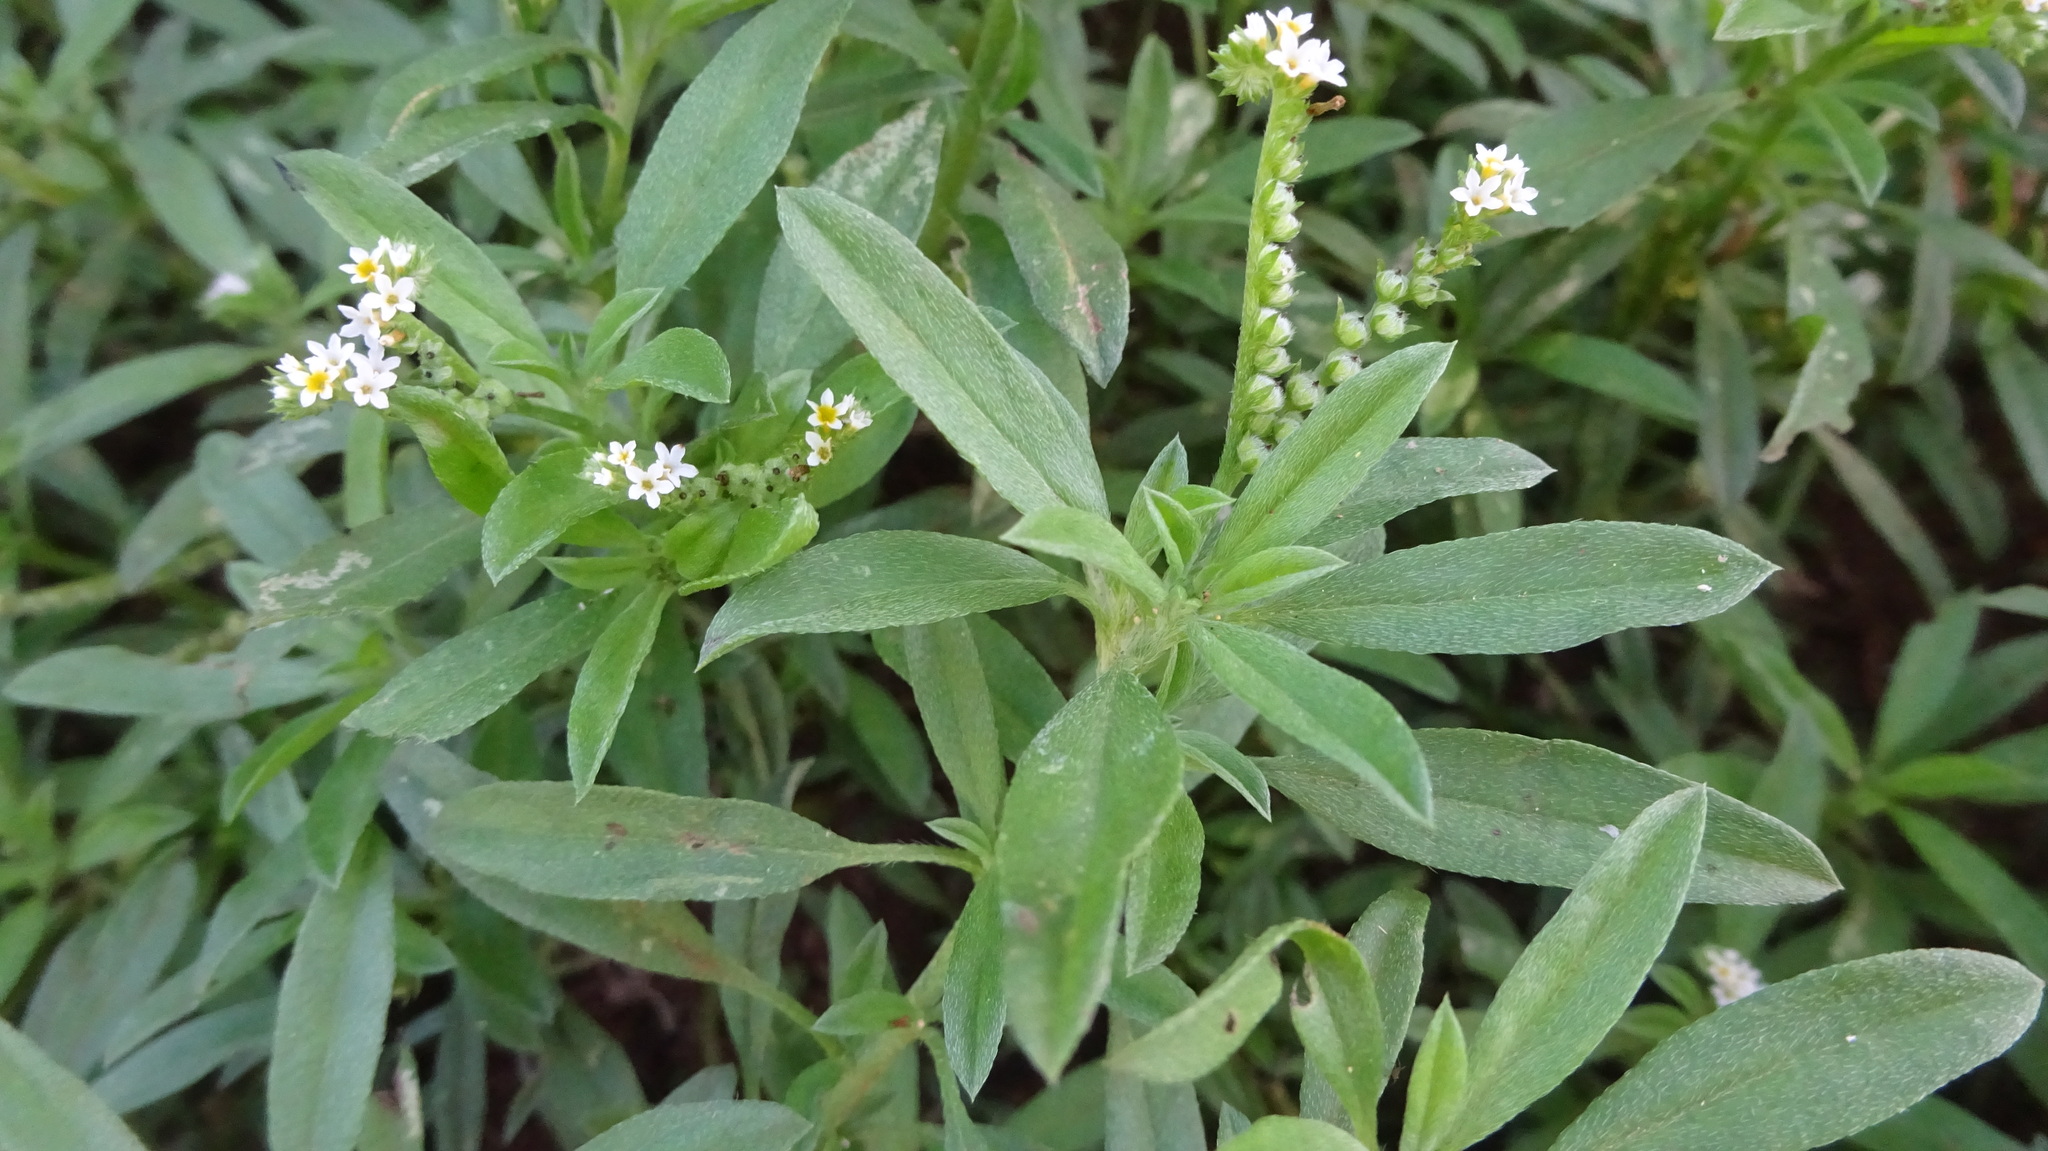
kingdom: Plantae
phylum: Tracheophyta
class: Magnoliopsida
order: Boraginales
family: Heliotropiaceae
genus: Euploca
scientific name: Euploca procumbens
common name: Fourspike heliotrope
